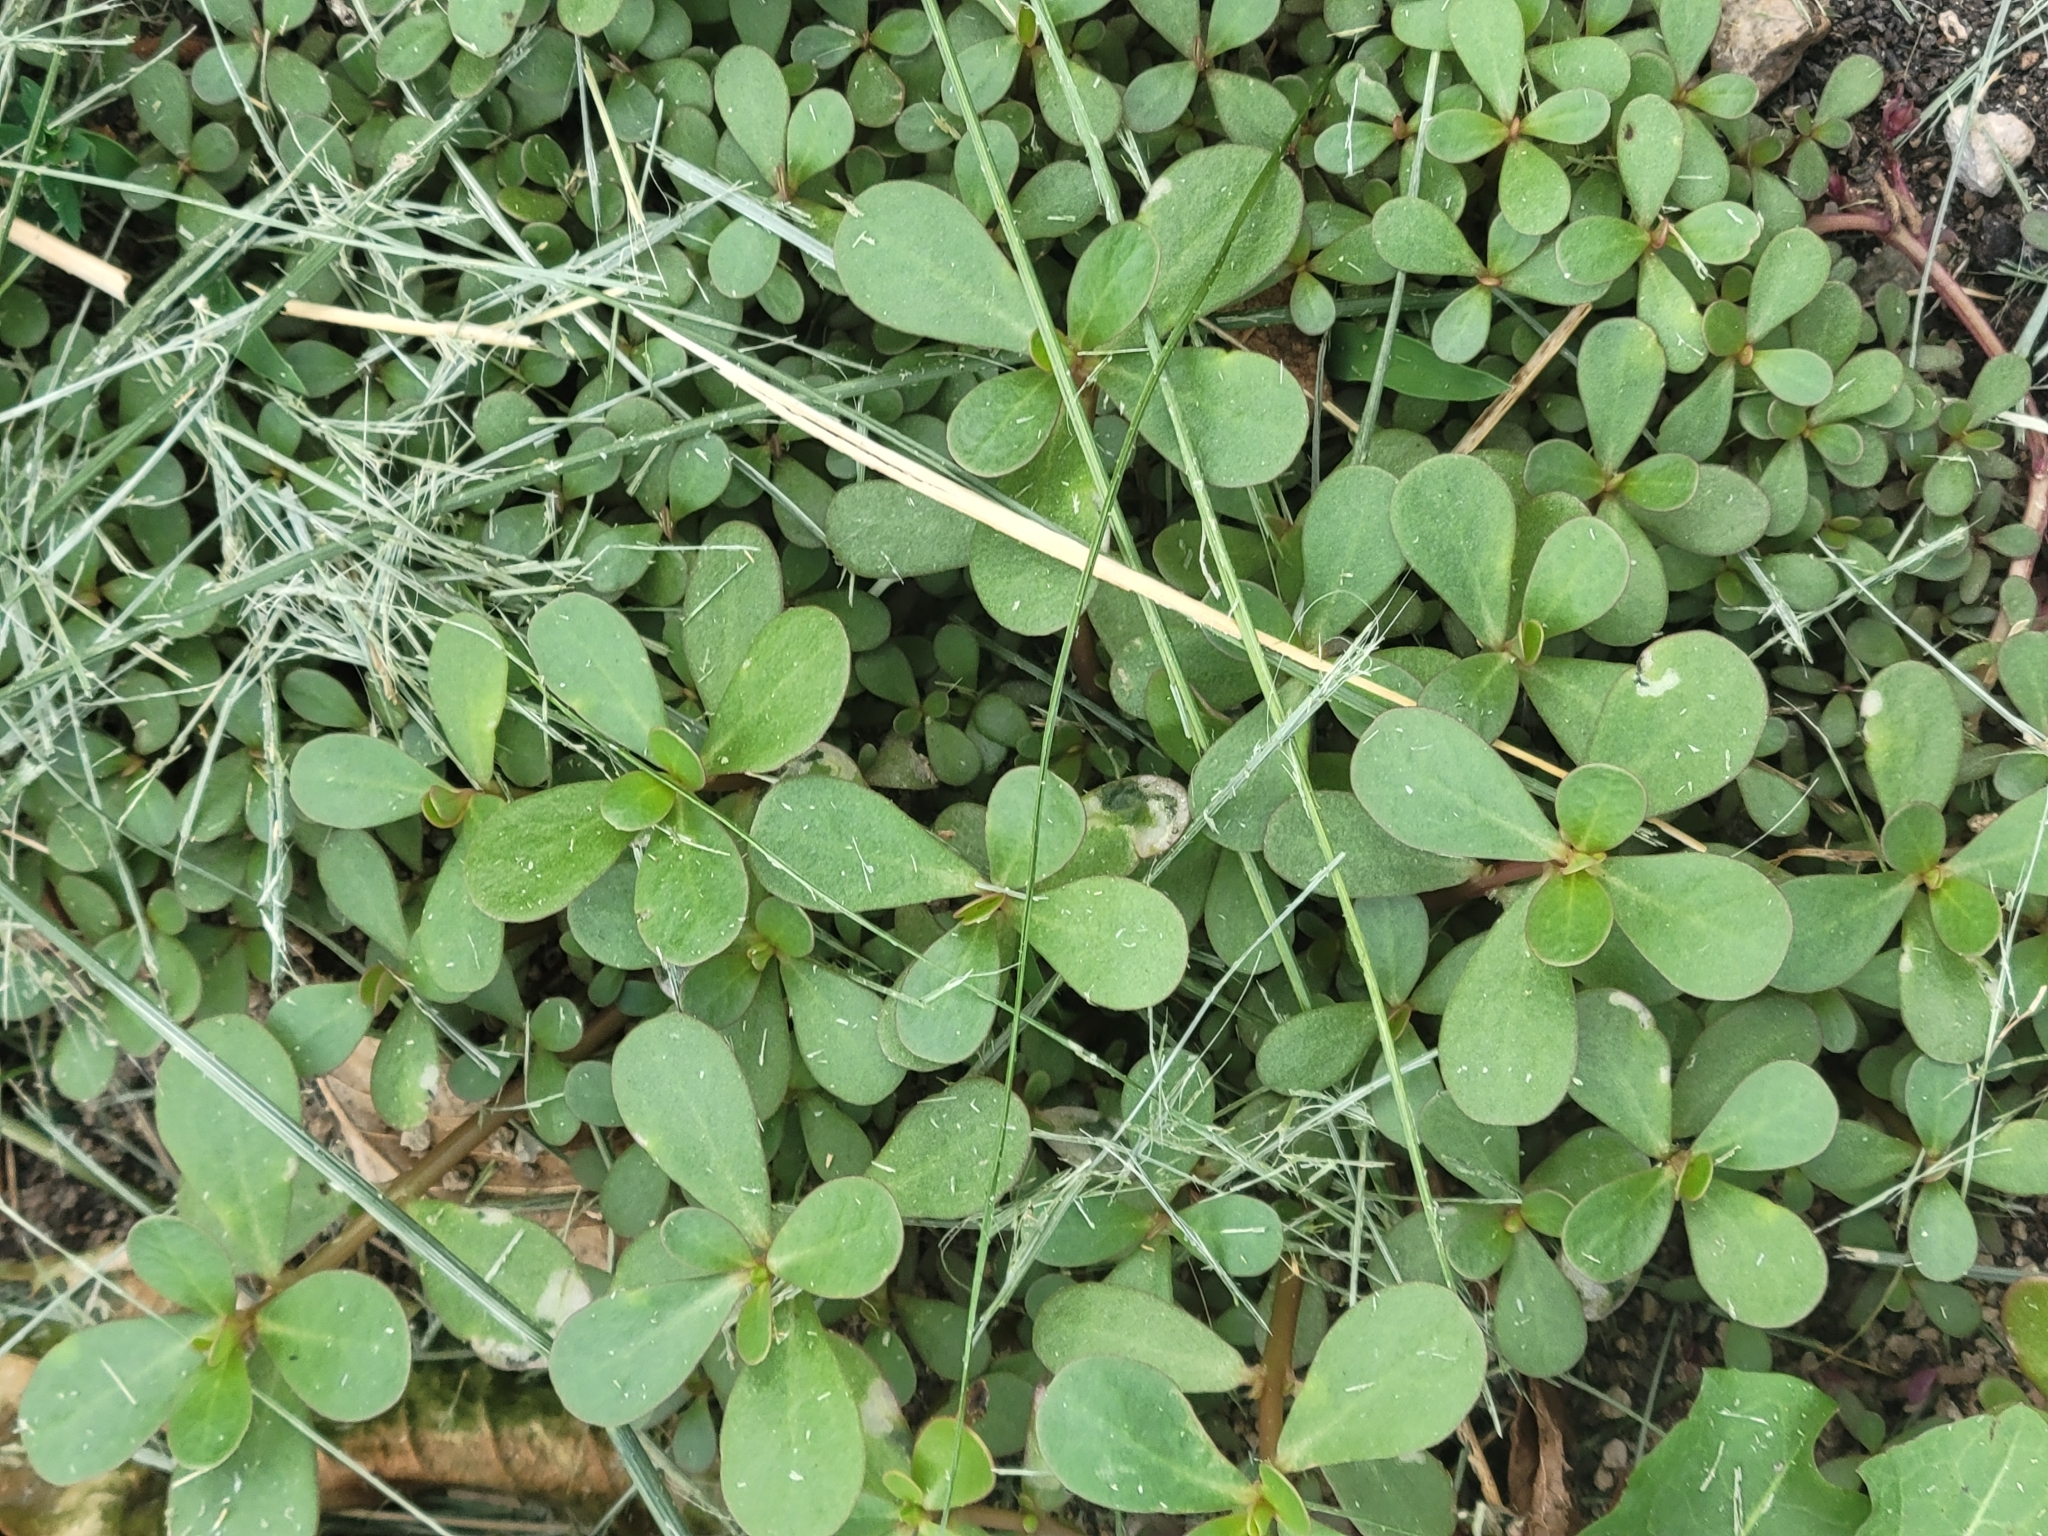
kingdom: Plantae
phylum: Tracheophyta
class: Magnoliopsida
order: Caryophyllales
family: Portulacaceae
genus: Portulaca
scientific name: Portulaca oleracea
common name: Common purslane
